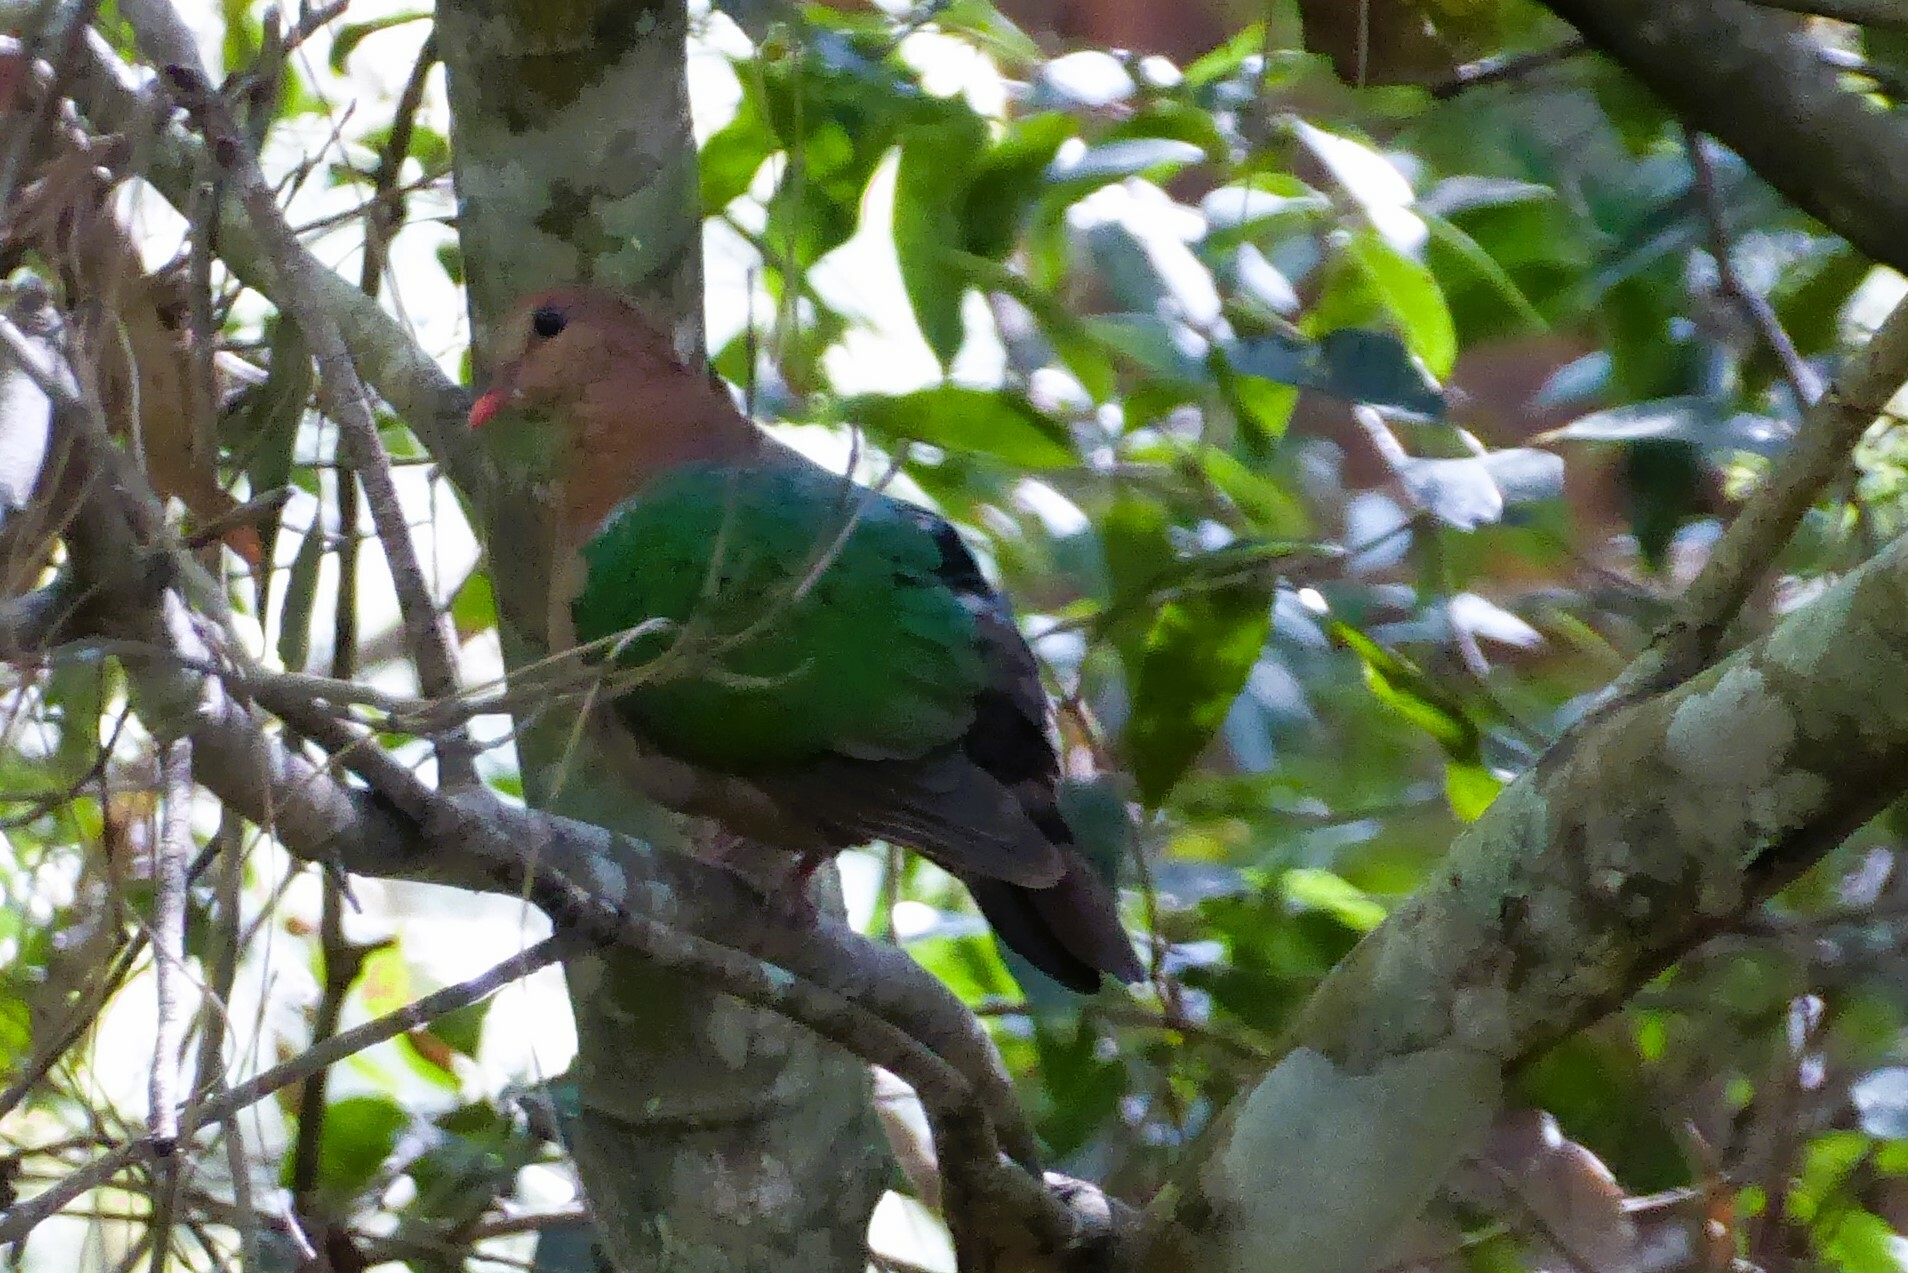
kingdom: Animalia
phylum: Chordata
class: Aves
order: Columbiformes
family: Columbidae
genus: Chalcophaps
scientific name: Chalcophaps longirostris
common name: Pacific emerald dove
